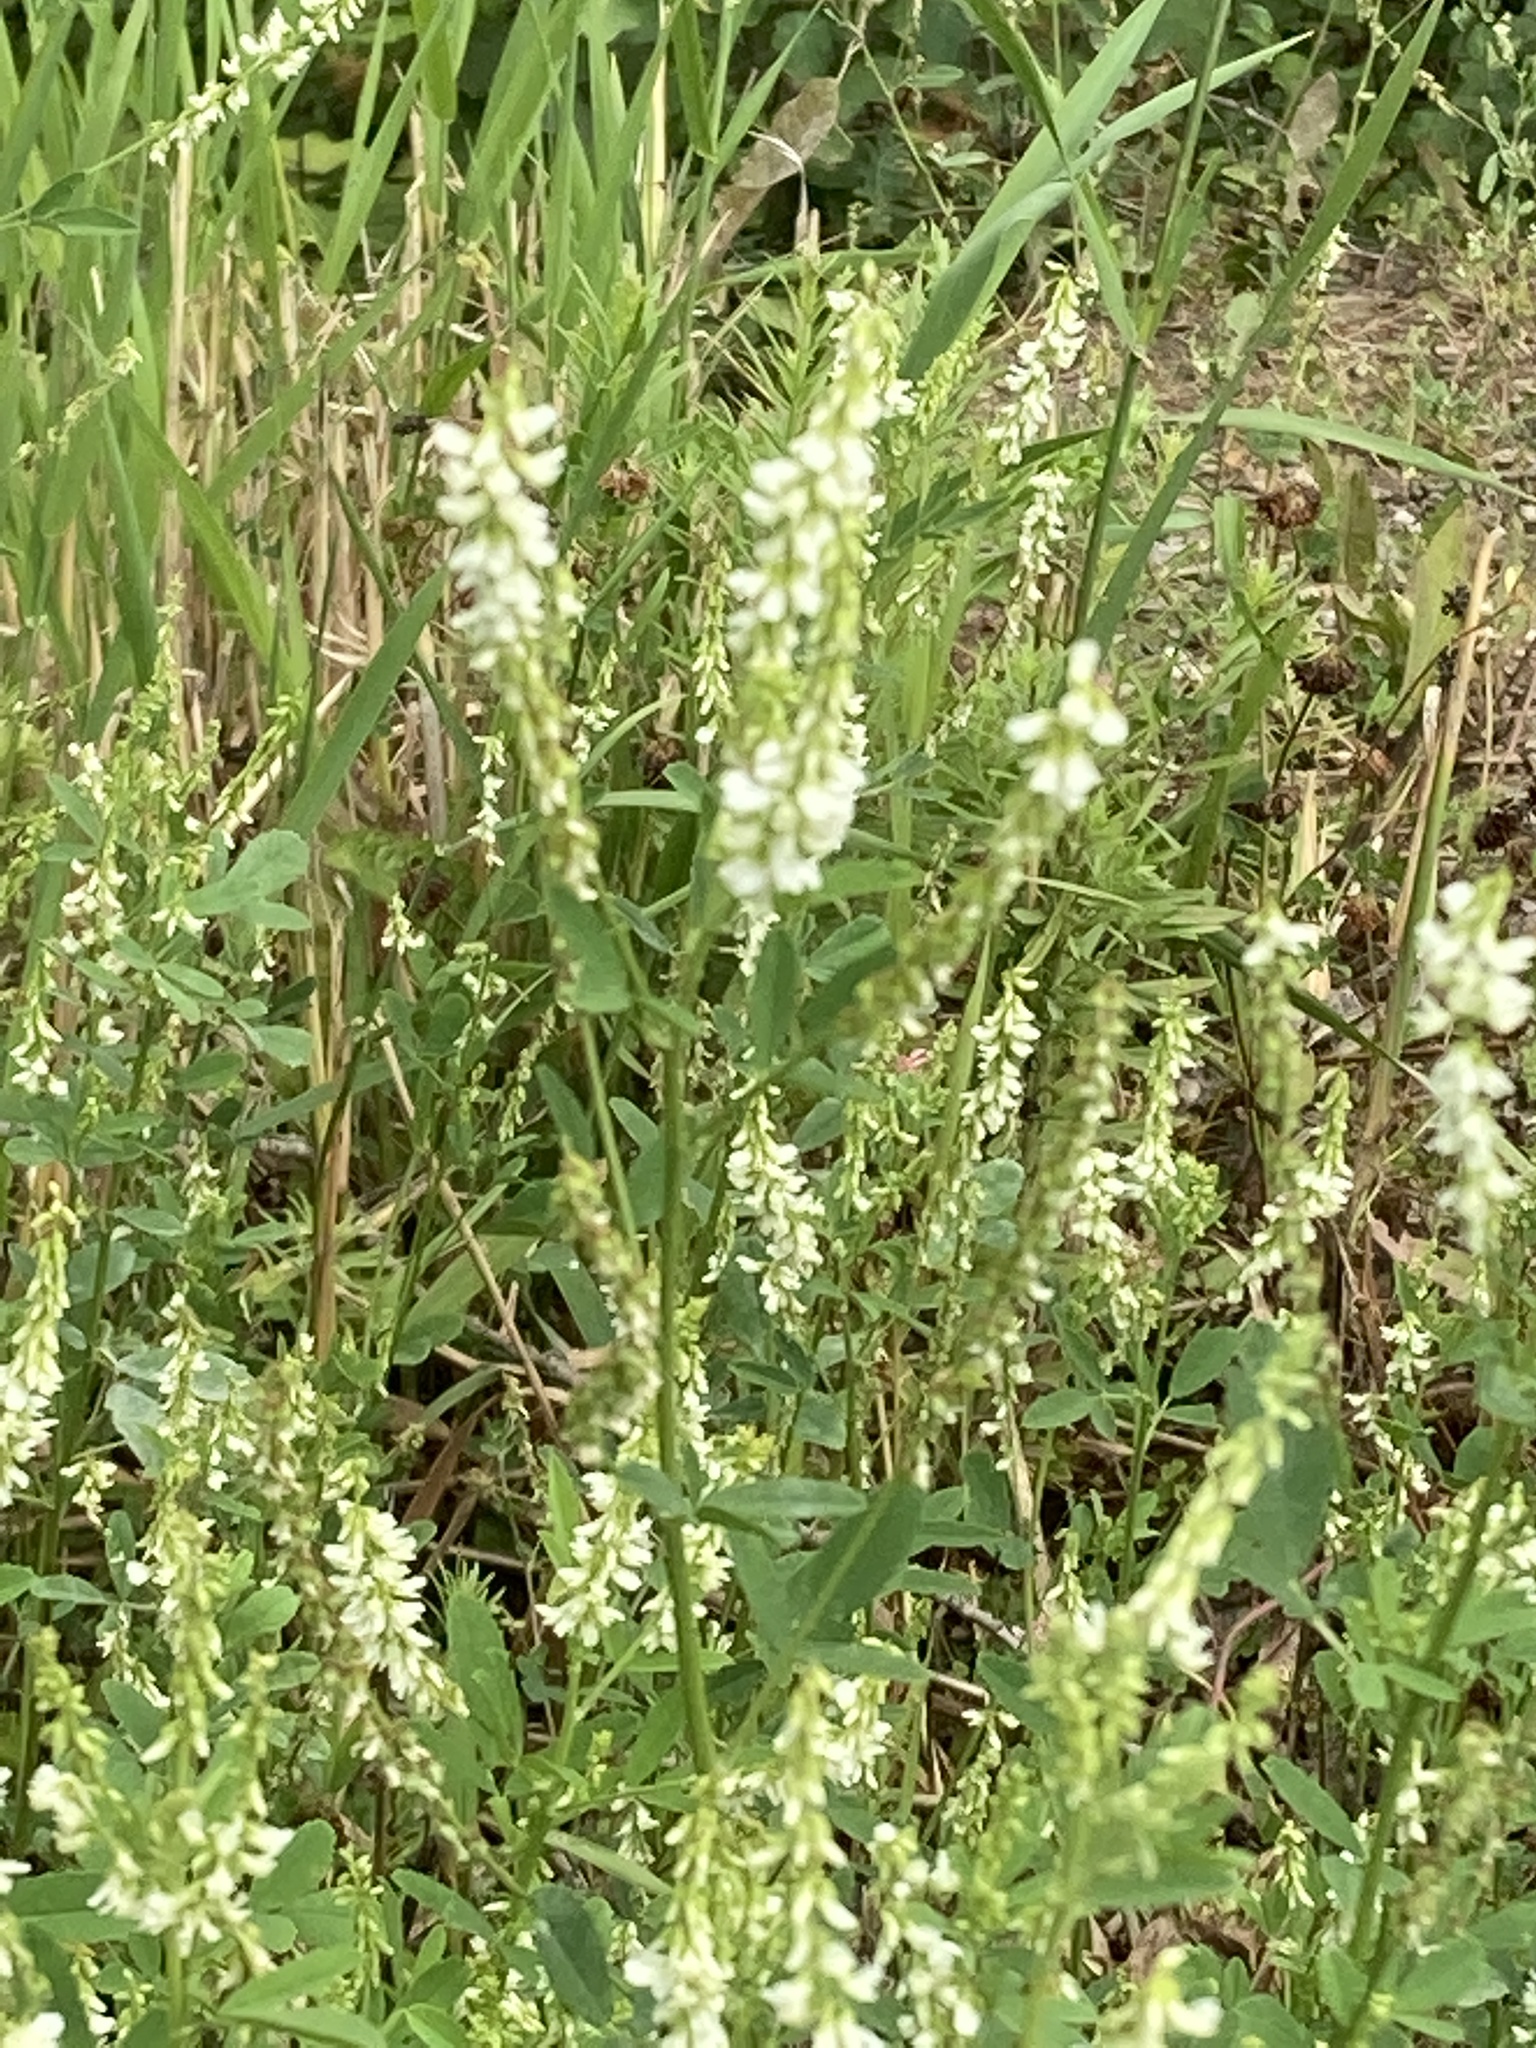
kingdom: Plantae
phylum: Tracheophyta
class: Magnoliopsida
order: Fabales
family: Fabaceae
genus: Melilotus
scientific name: Melilotus albus
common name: White melilot
